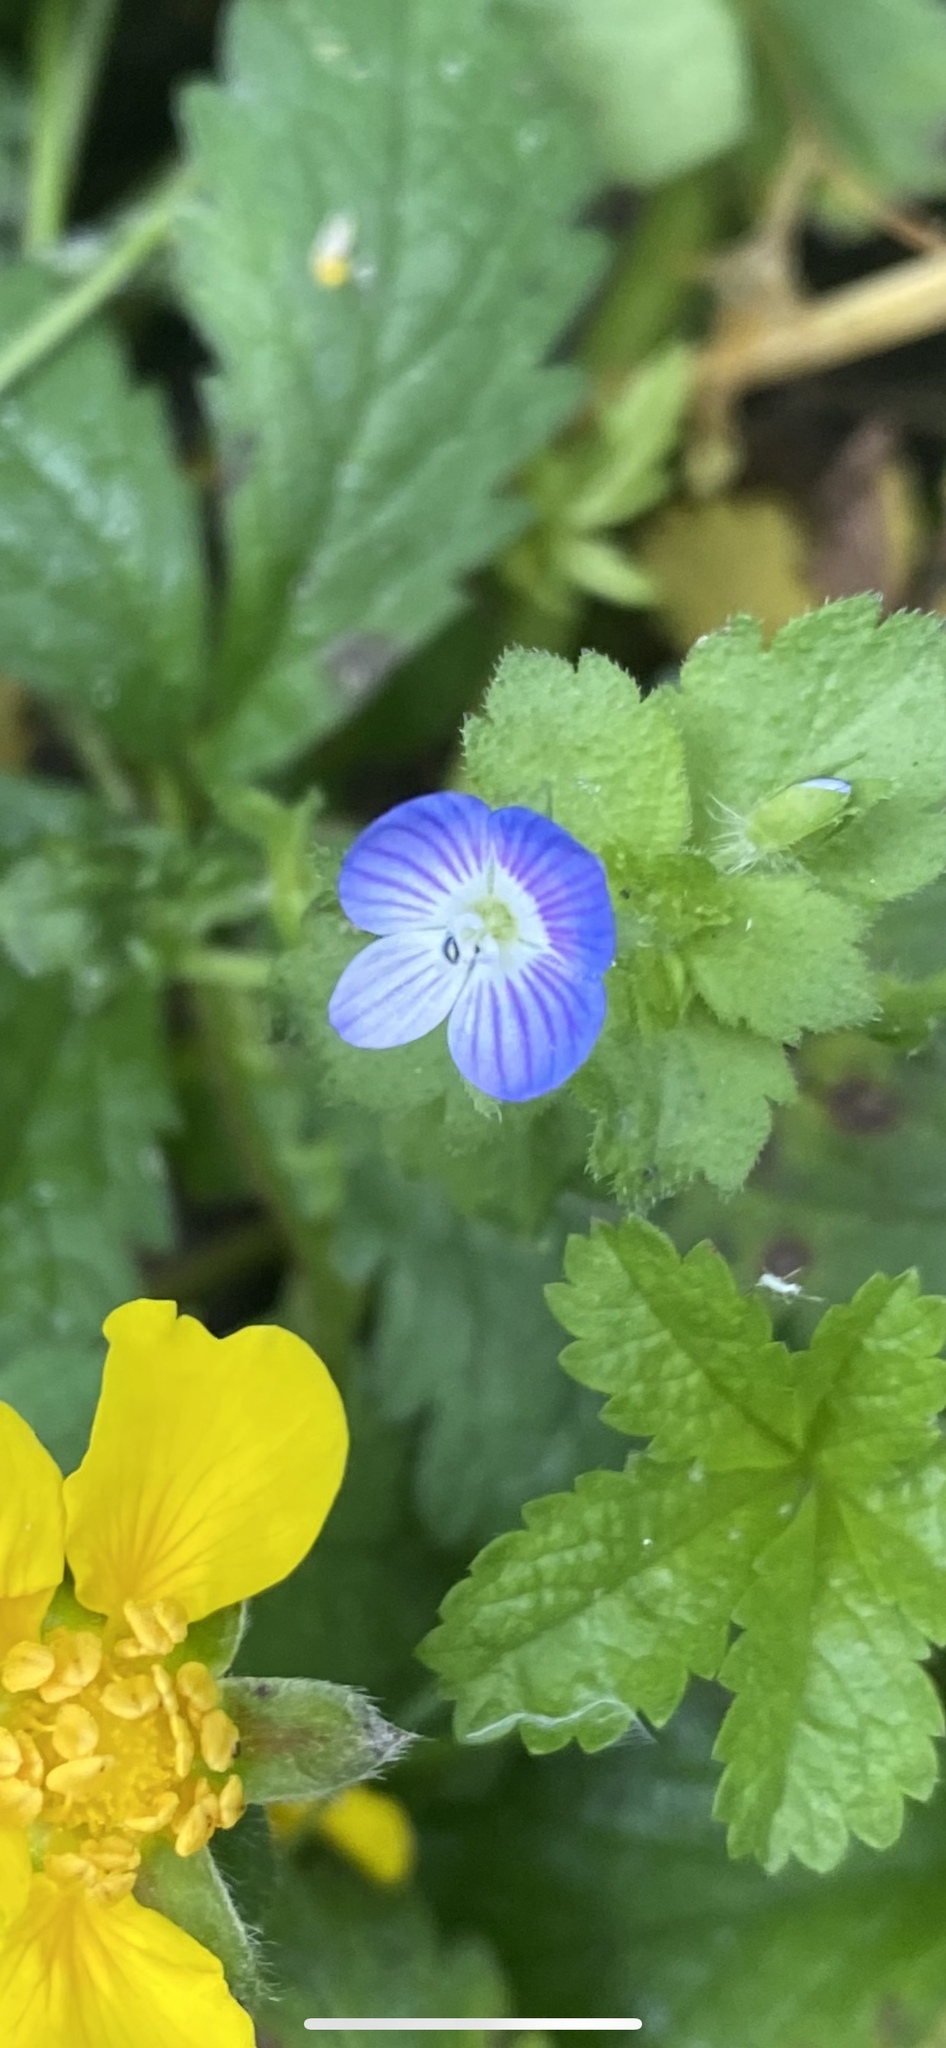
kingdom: Plantae
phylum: Tracheophyta
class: Magnoliopsida
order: Lamiales
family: Plantaginaceae
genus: Veronica
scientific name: Veronica persica
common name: Common field-speedwell
